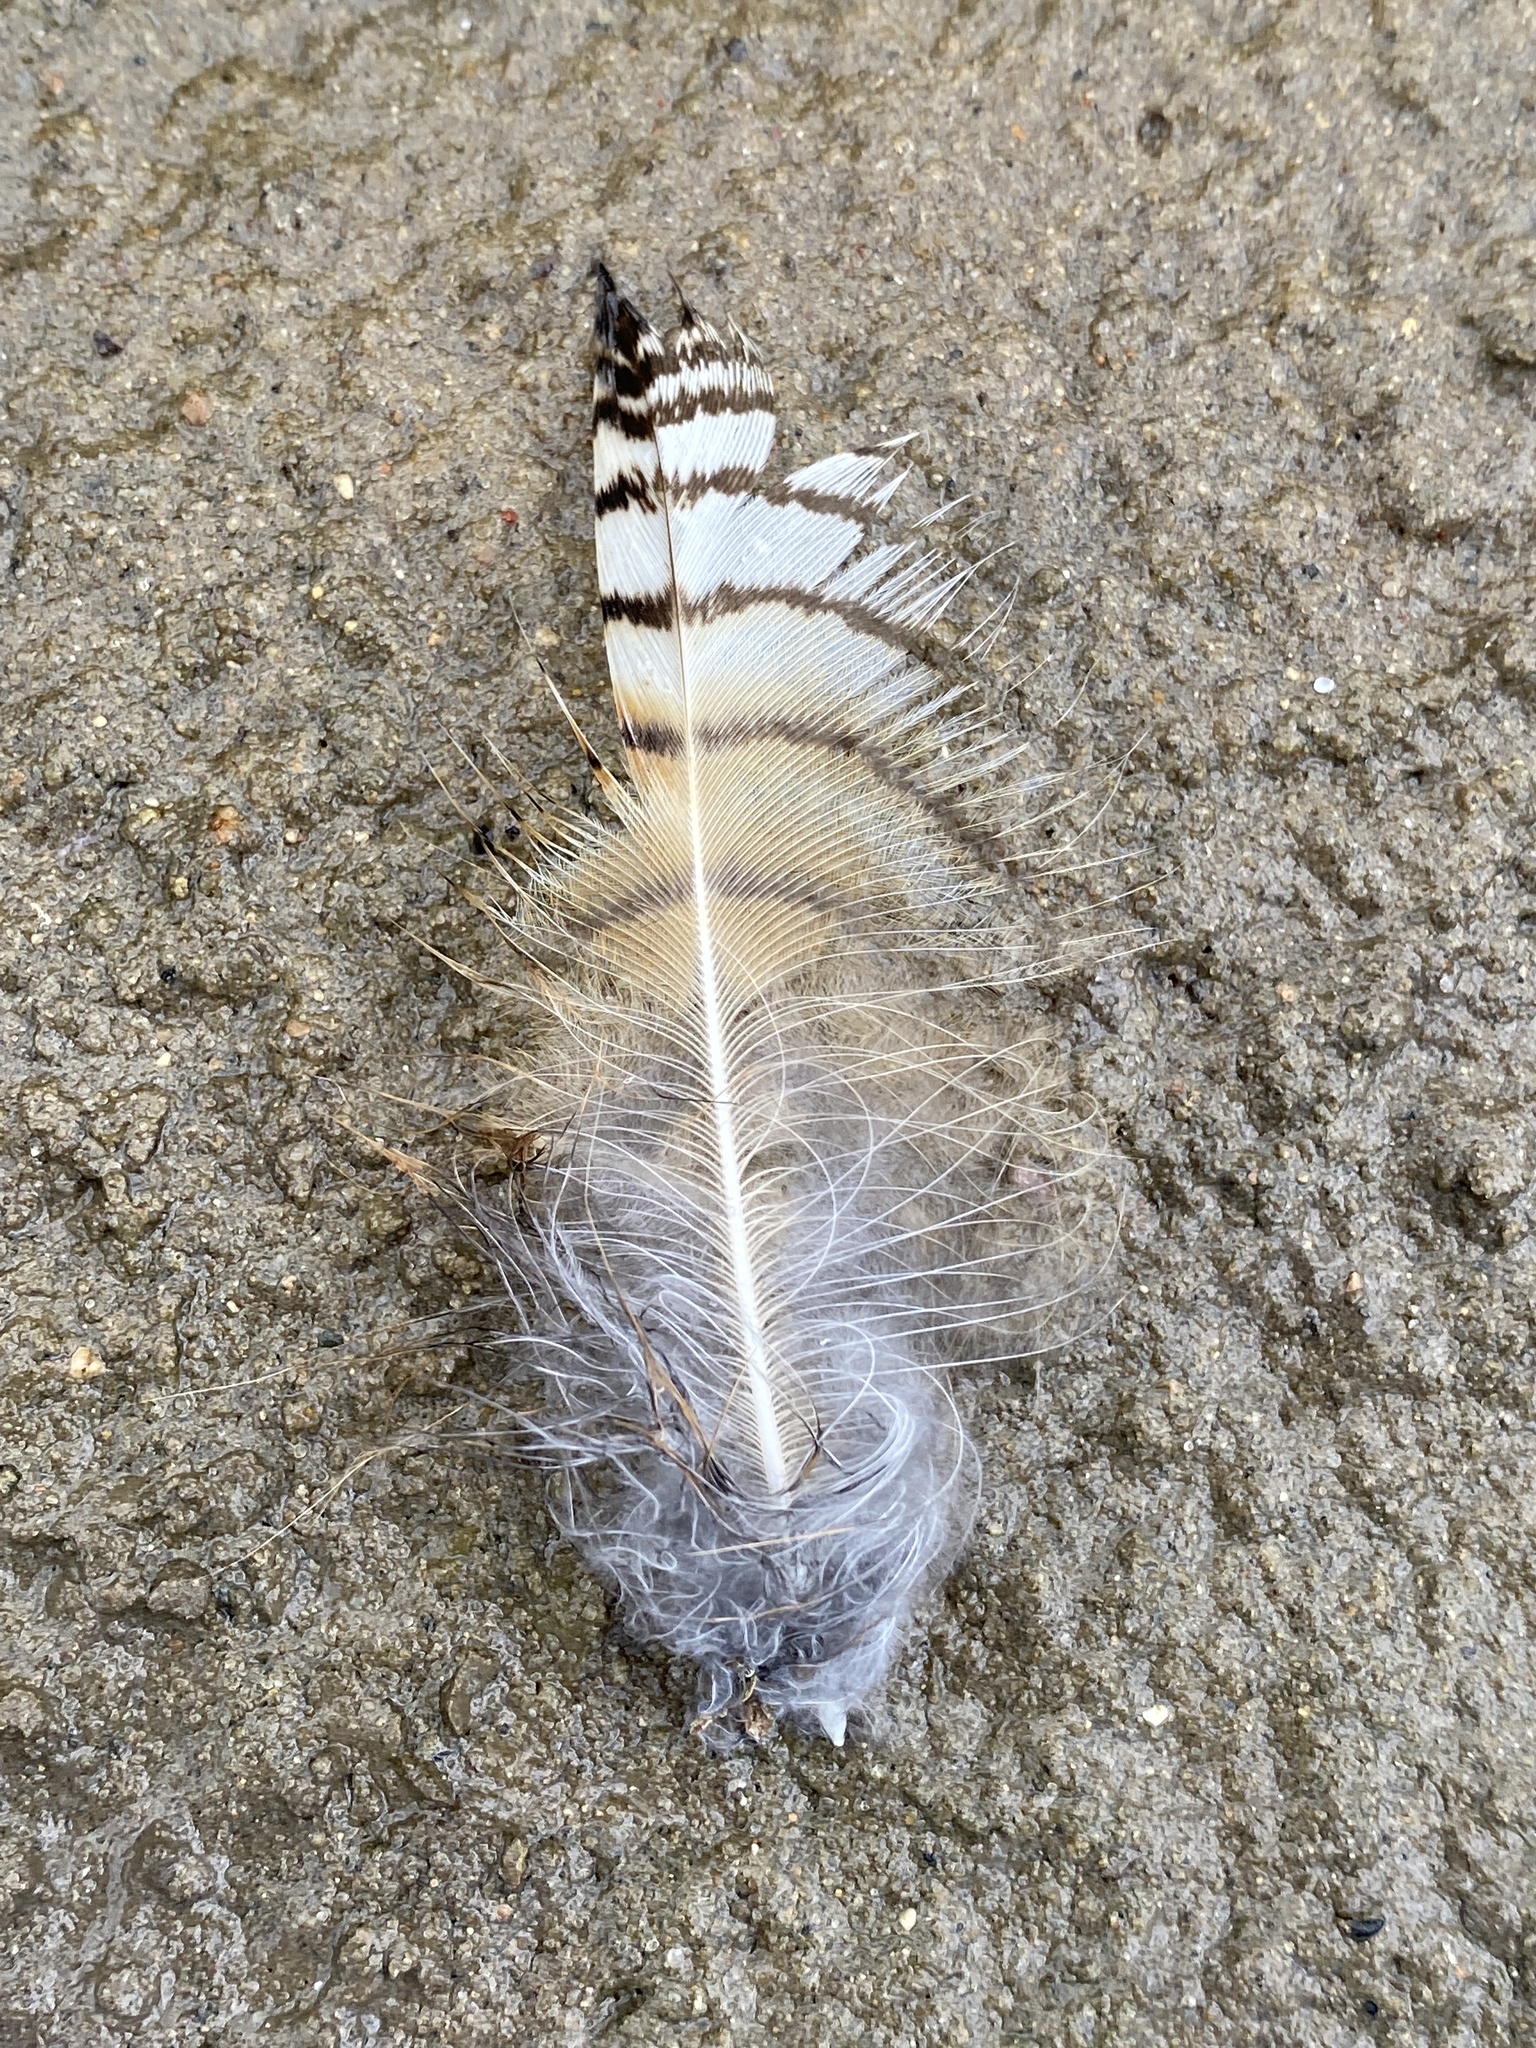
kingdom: Animalia
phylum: Chordata
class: Aves
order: Strigiformes
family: Strigidae
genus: Bubo
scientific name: Bubo virginianus
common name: Great horned owl
